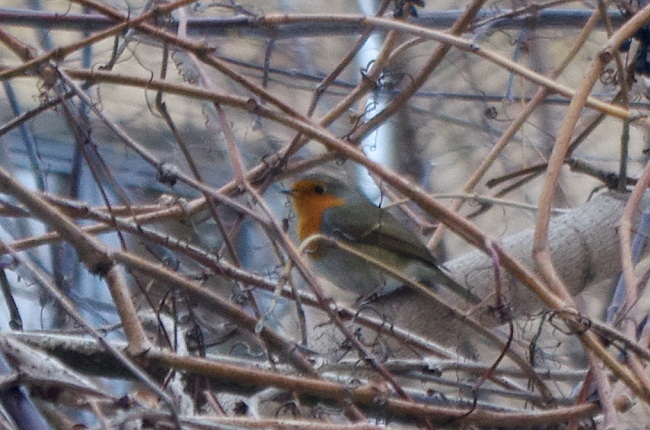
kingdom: Animalia
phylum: Chordata
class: Aves
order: Passeriformes
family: Muscicapidae
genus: Erithacus
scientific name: Erithacus rubecula
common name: European robin
